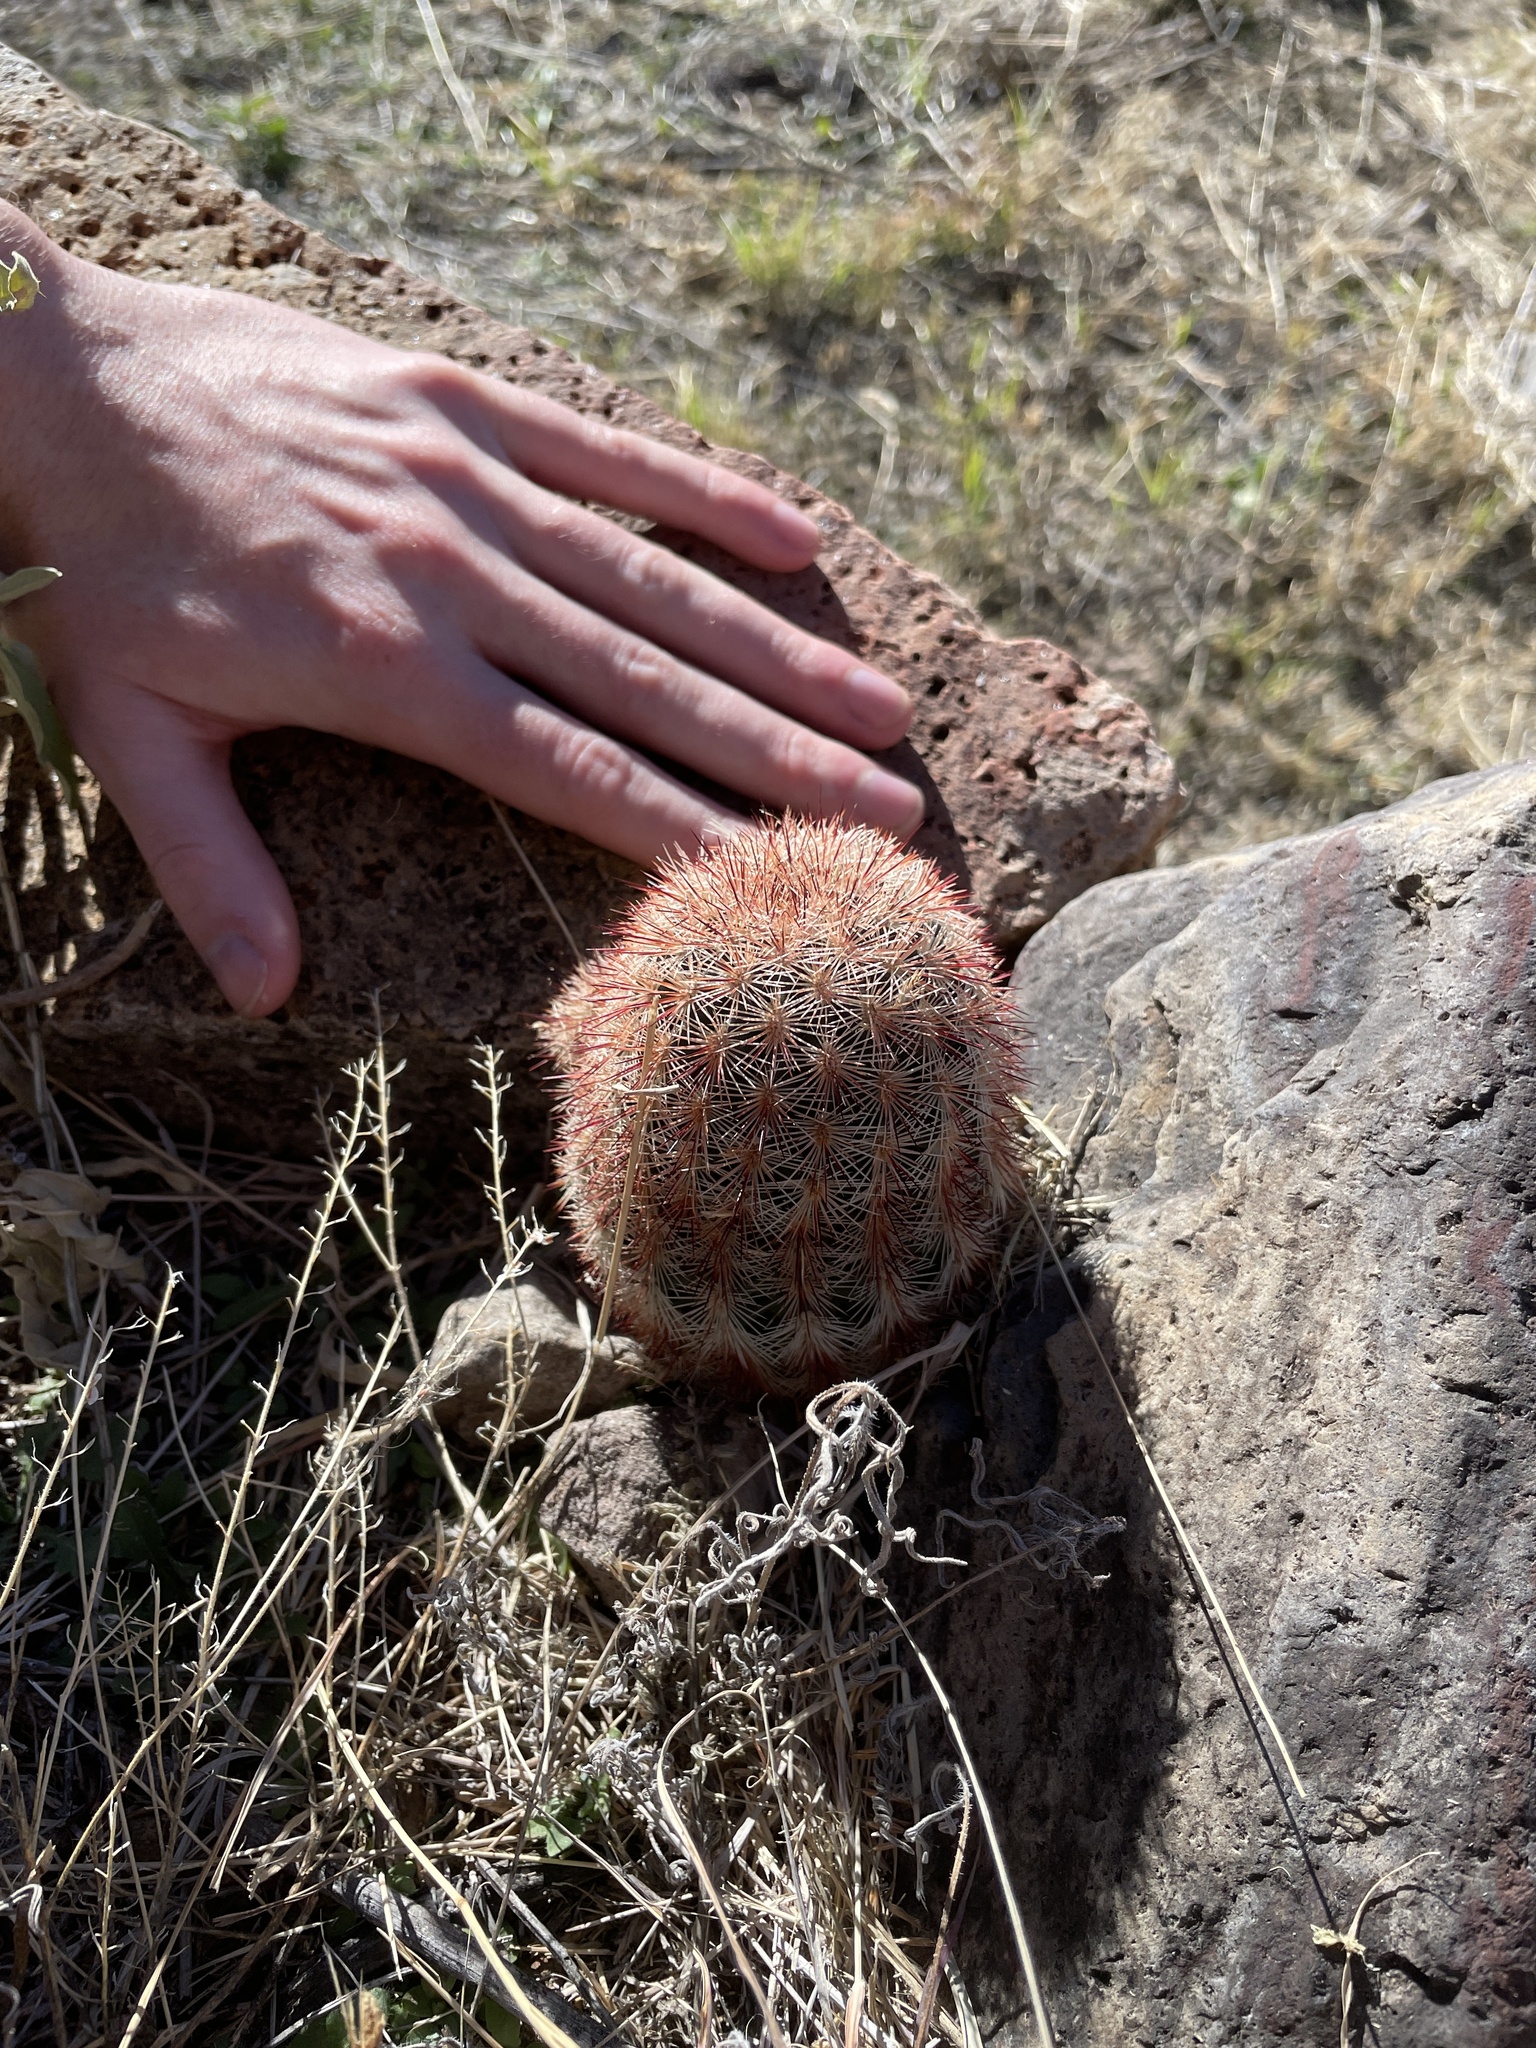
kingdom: Plantae
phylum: Tracheophyta
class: Magnoliopsida
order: Caryophyllales
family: Cactaceae
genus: Echinocereus
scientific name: Echinocereus russanthus
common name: Brownspine hedgehog cactus
